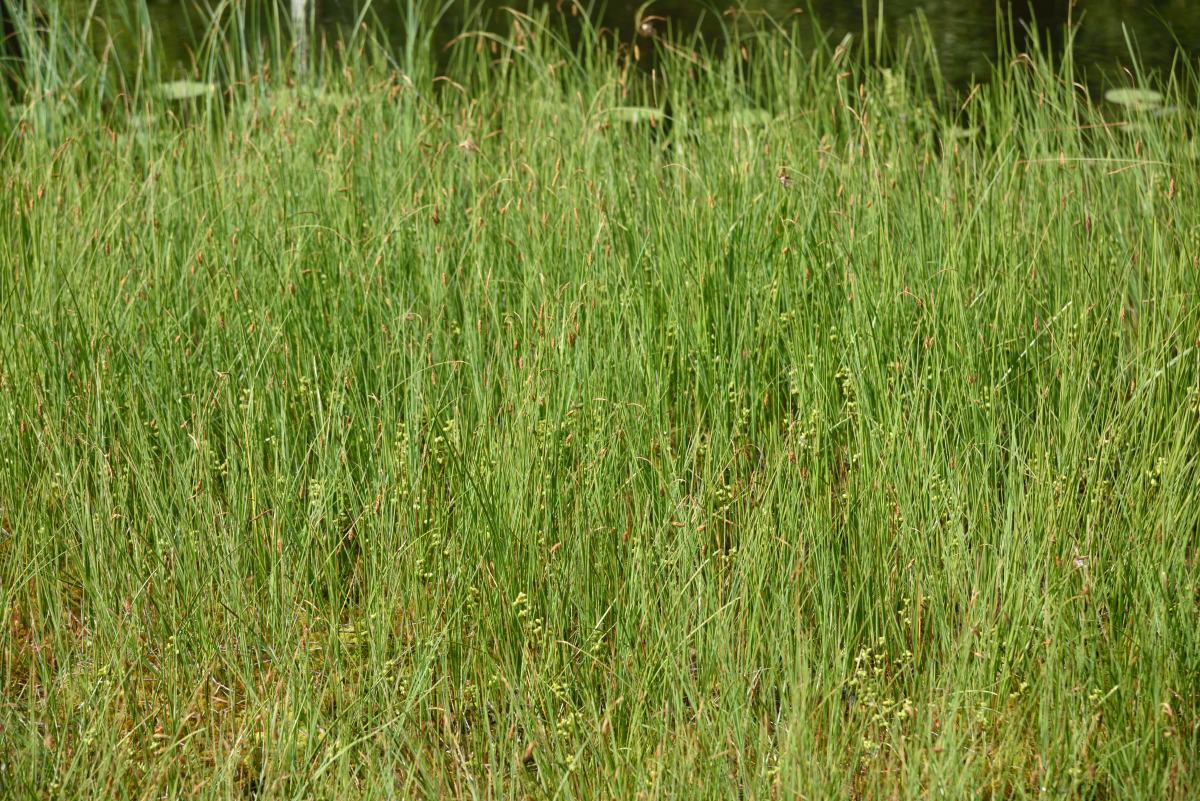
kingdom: Plantae
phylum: Tracheophyta
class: Liliopsida
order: Alismatales
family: Scheuchzeriaceae
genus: Scheuchzeria
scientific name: Scheuchzeria palustris
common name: Rannoch-rush
